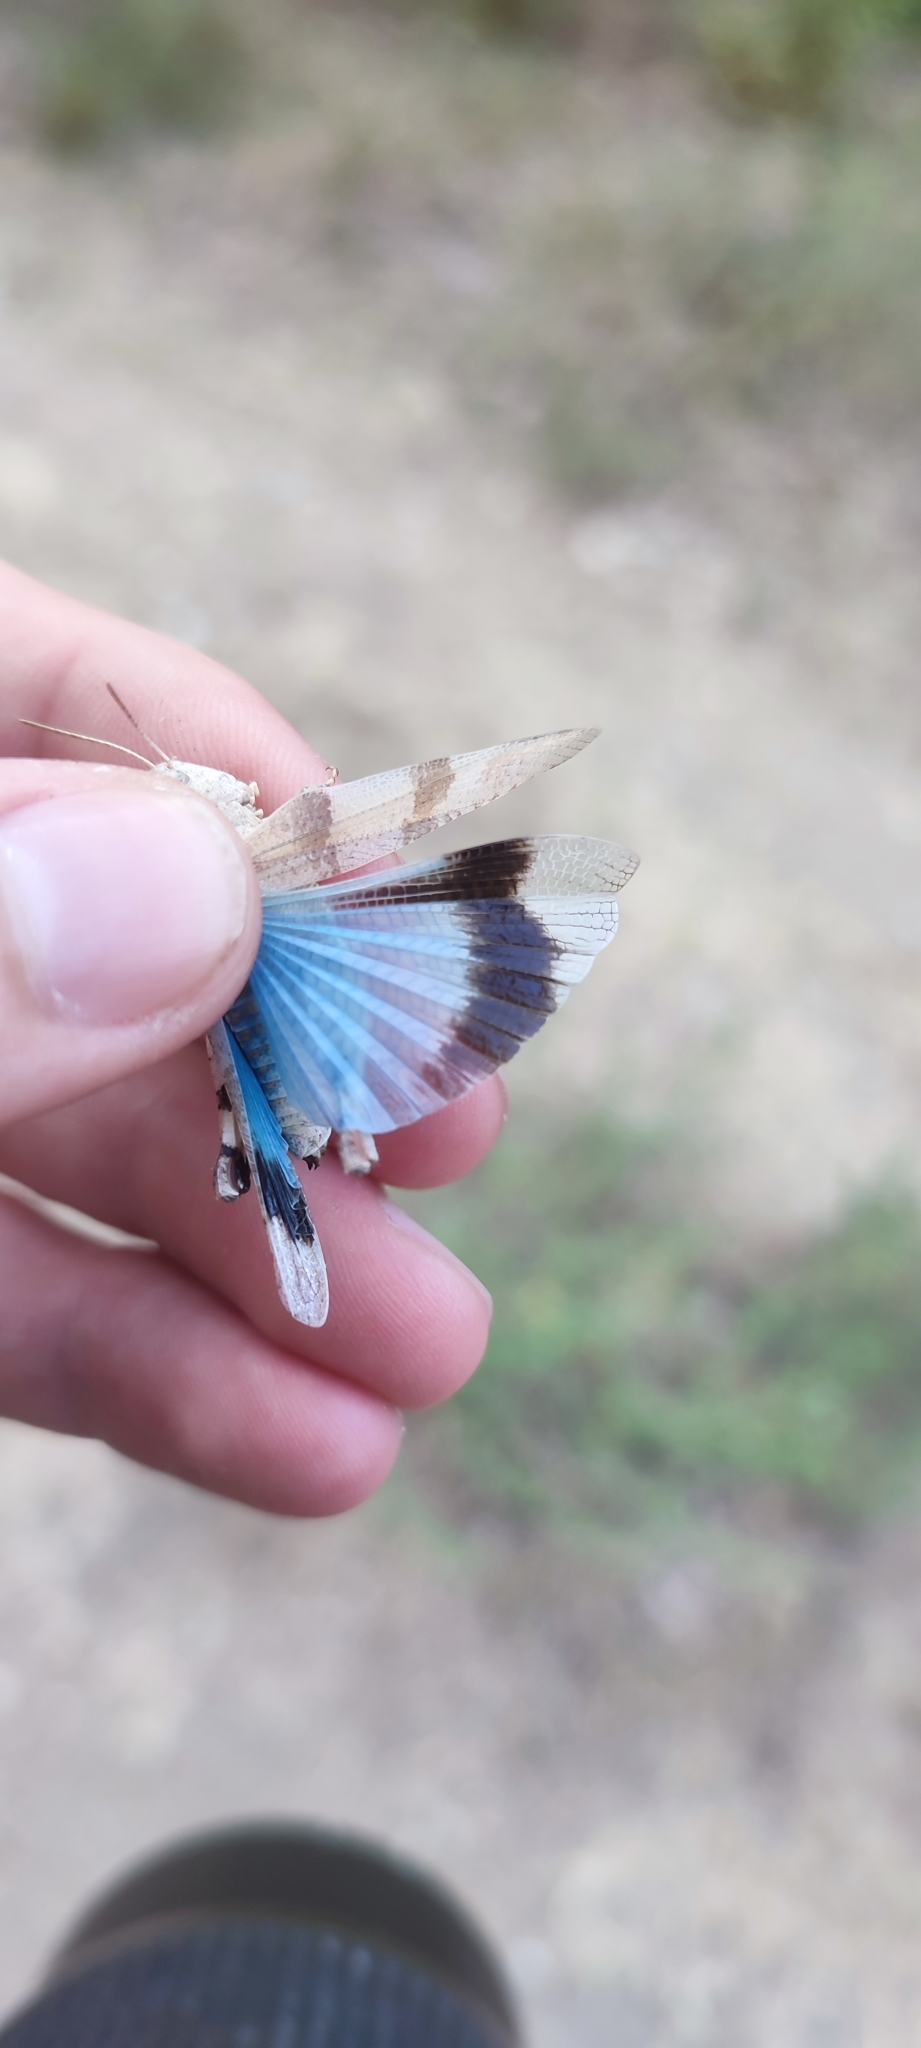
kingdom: Animalia
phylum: Arthropoda
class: Insecta
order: Orthoptera
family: Acrididae
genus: Oedipoda
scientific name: Oedipoda caerulescens
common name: Blue-winged grasshopper
